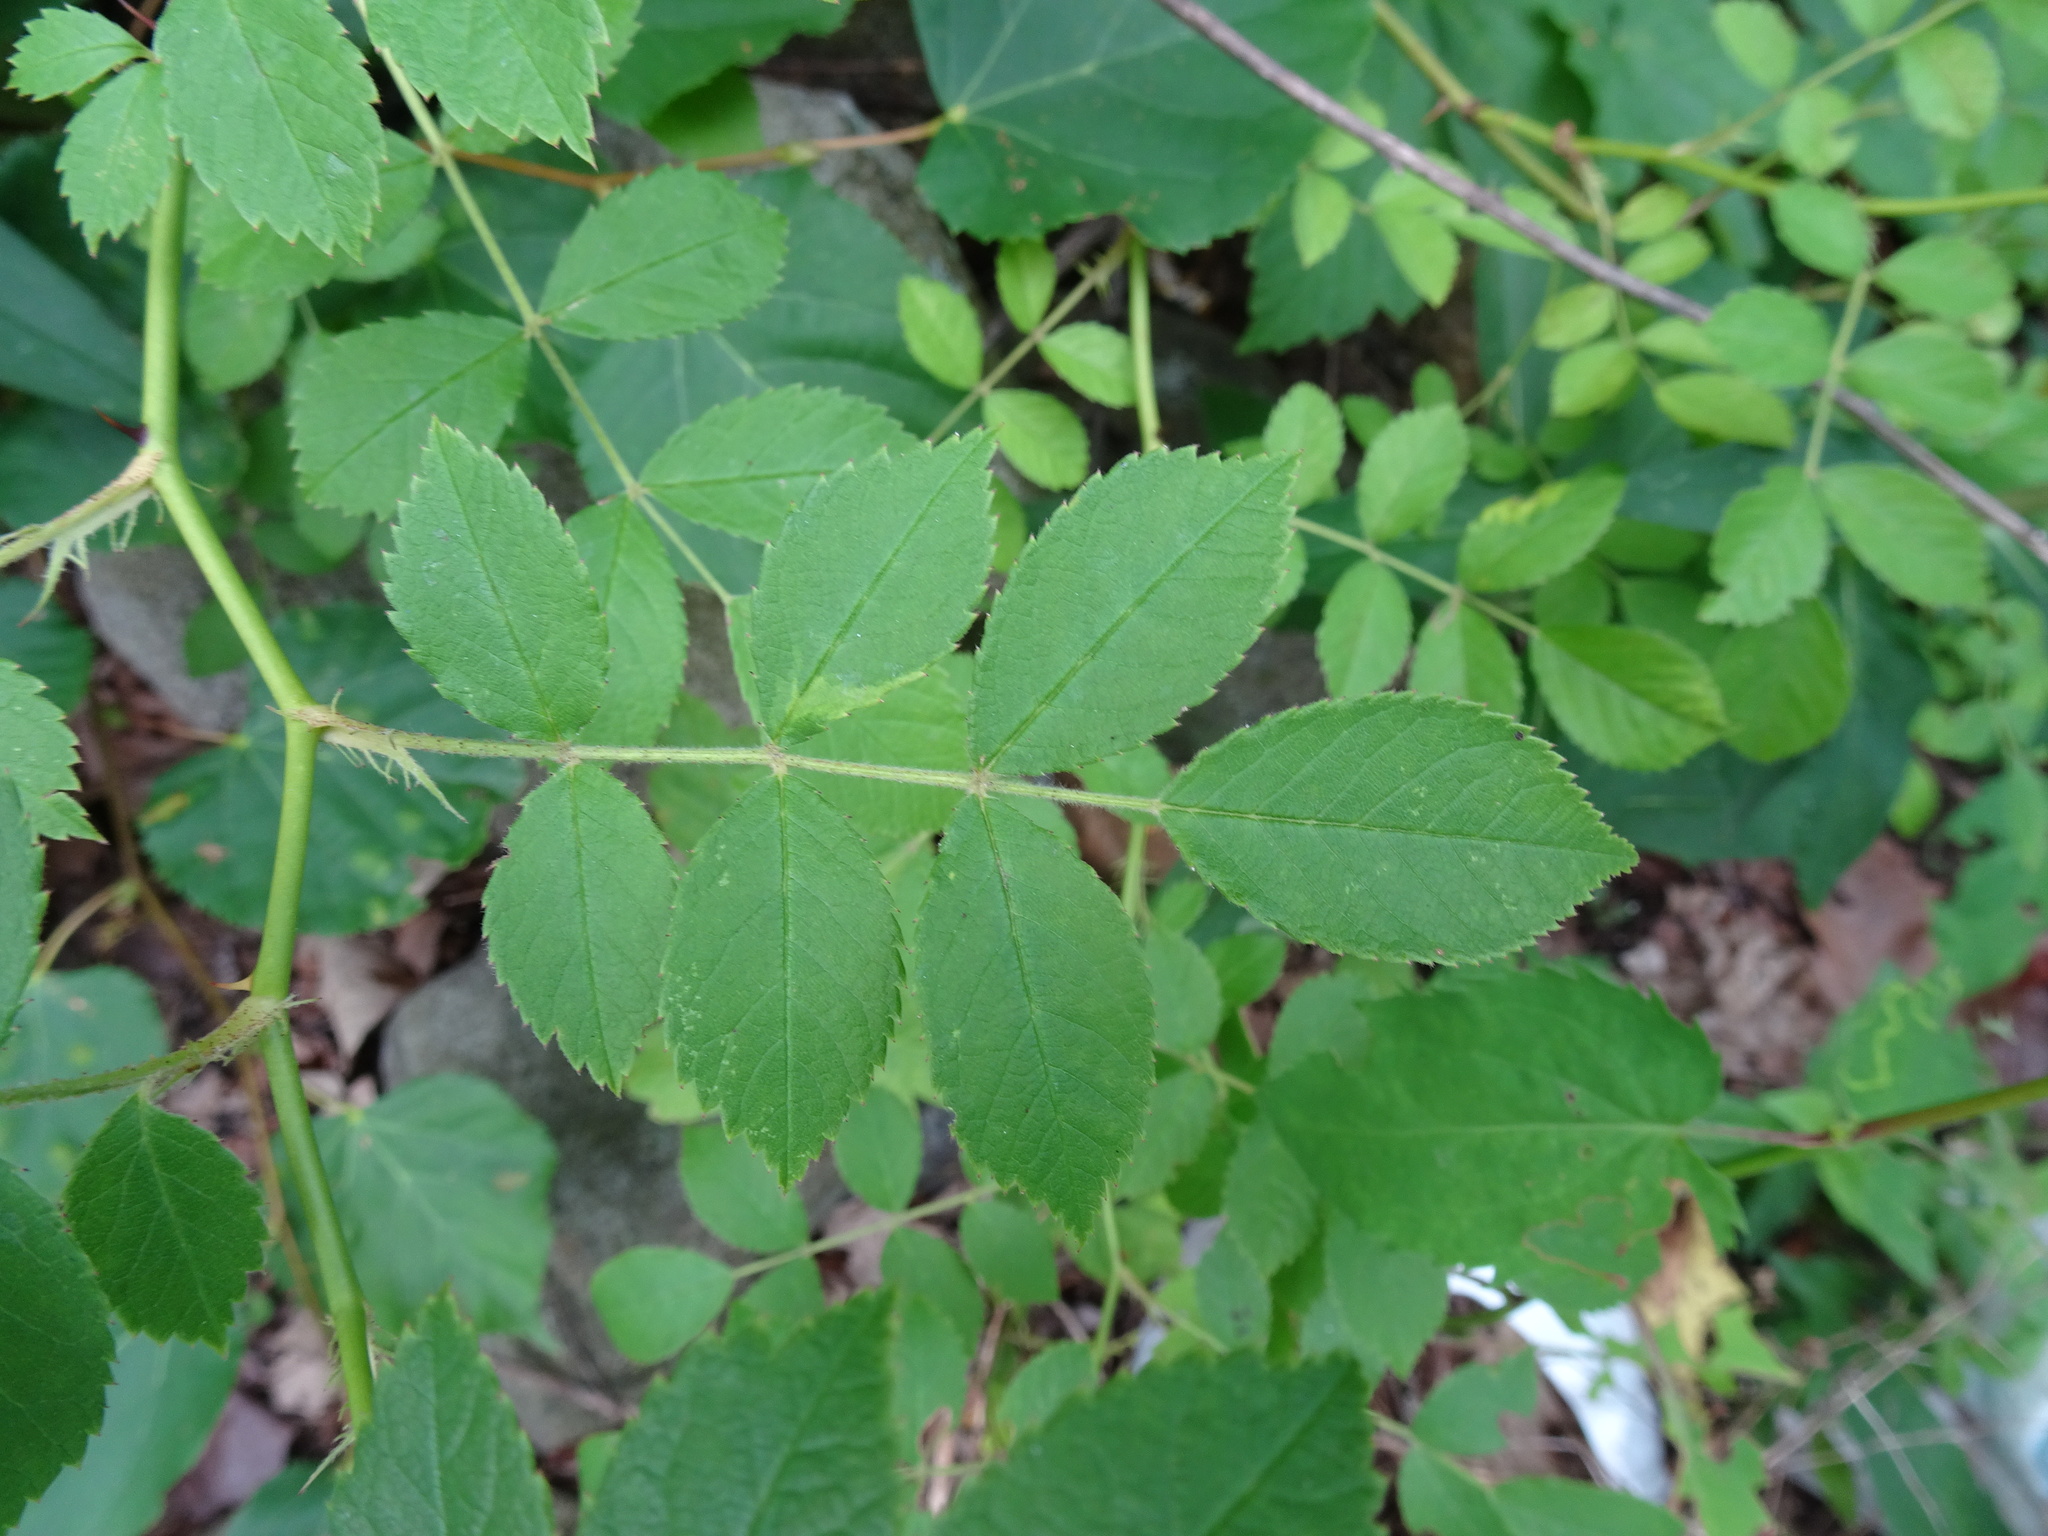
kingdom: Plantae
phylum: Tracheophyta
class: Magnoliopsida
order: Rosales
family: Rosaceae
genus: Rosa
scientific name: Rosa multiflora
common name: Multiflora rose
